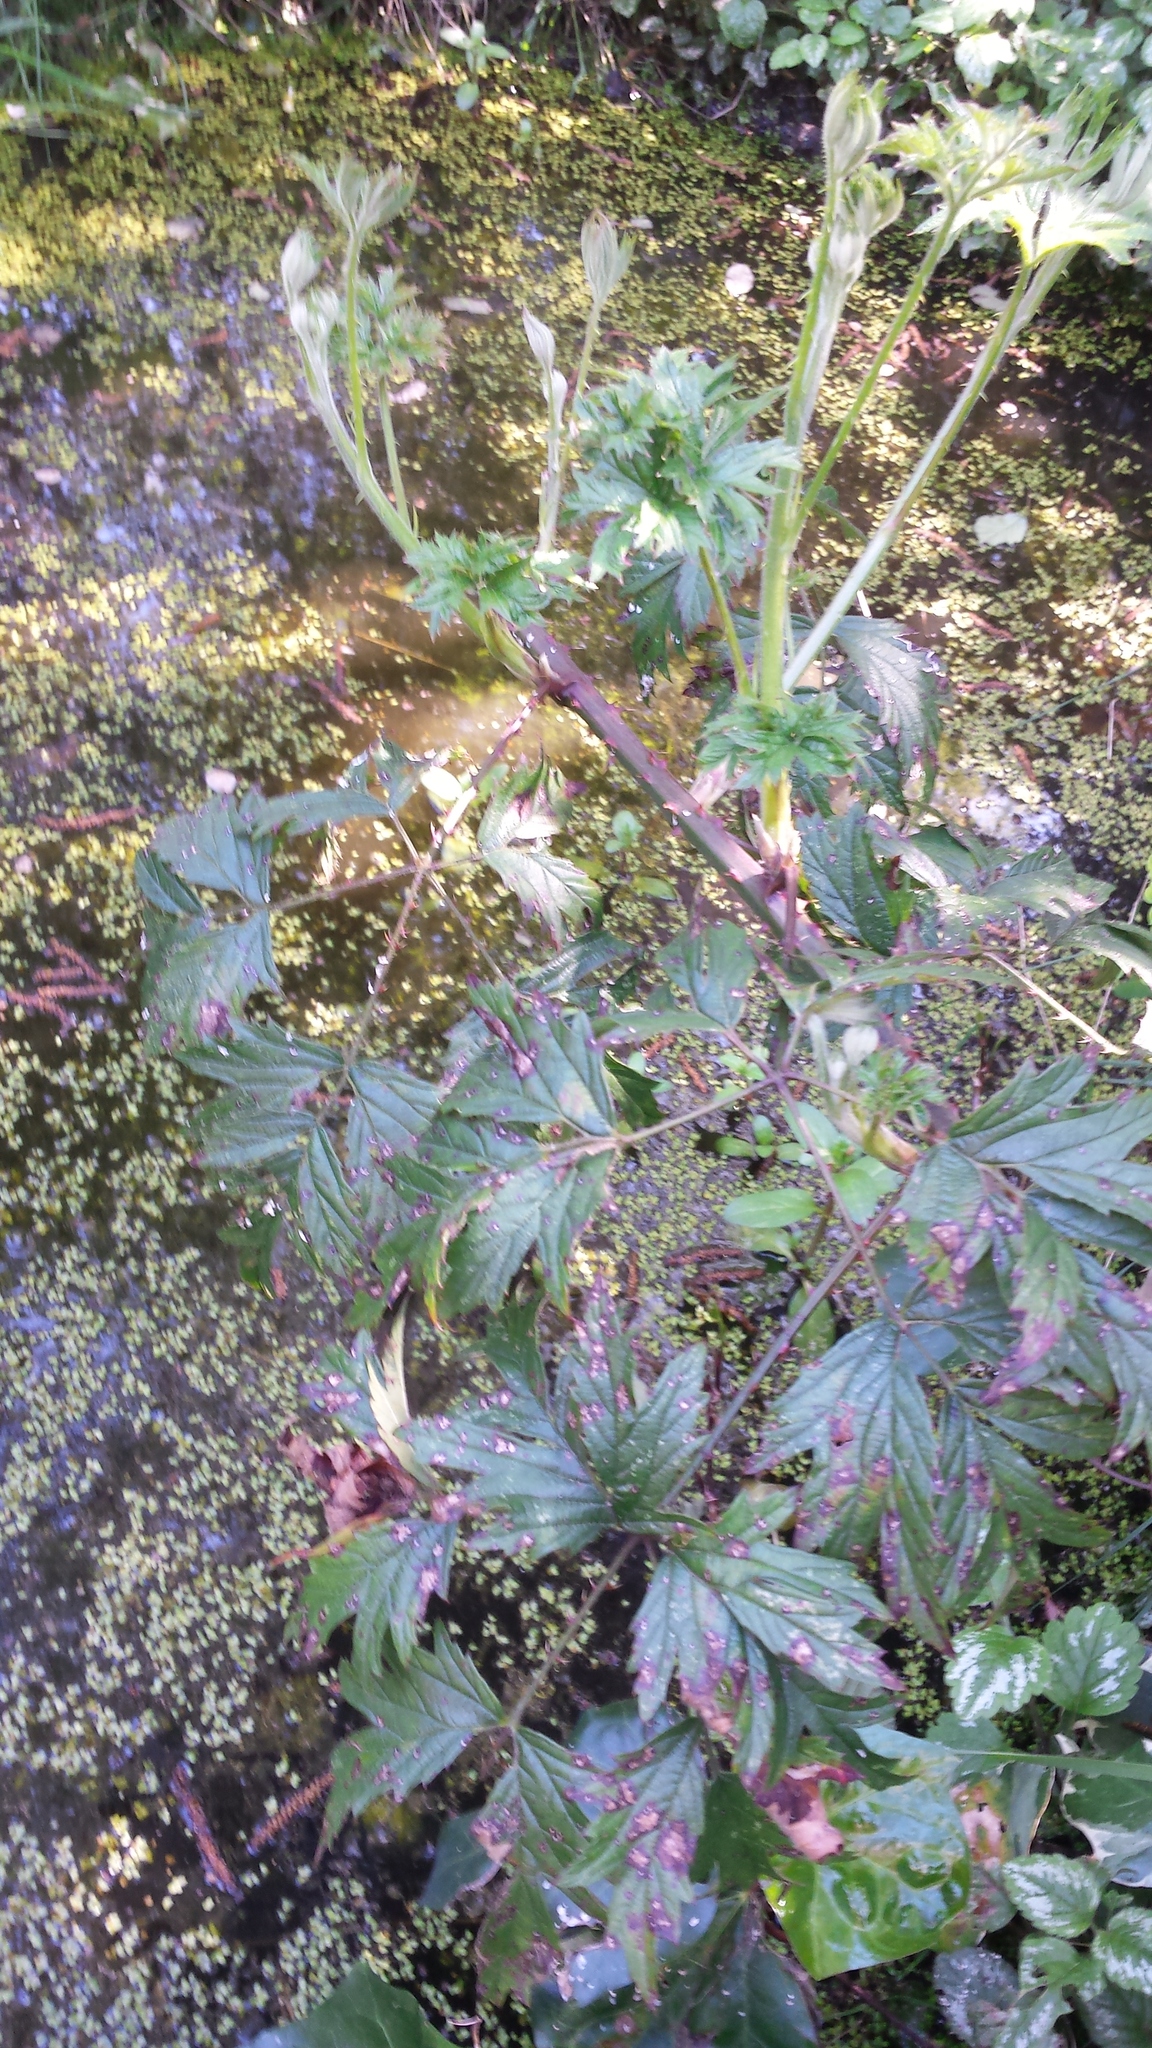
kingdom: Plantae
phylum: Tracheophyta
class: Magnoliopsida
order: Rosales
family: Rosaceae
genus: Rubus
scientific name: Rubus laciniatus
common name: Evergreen blackberry
